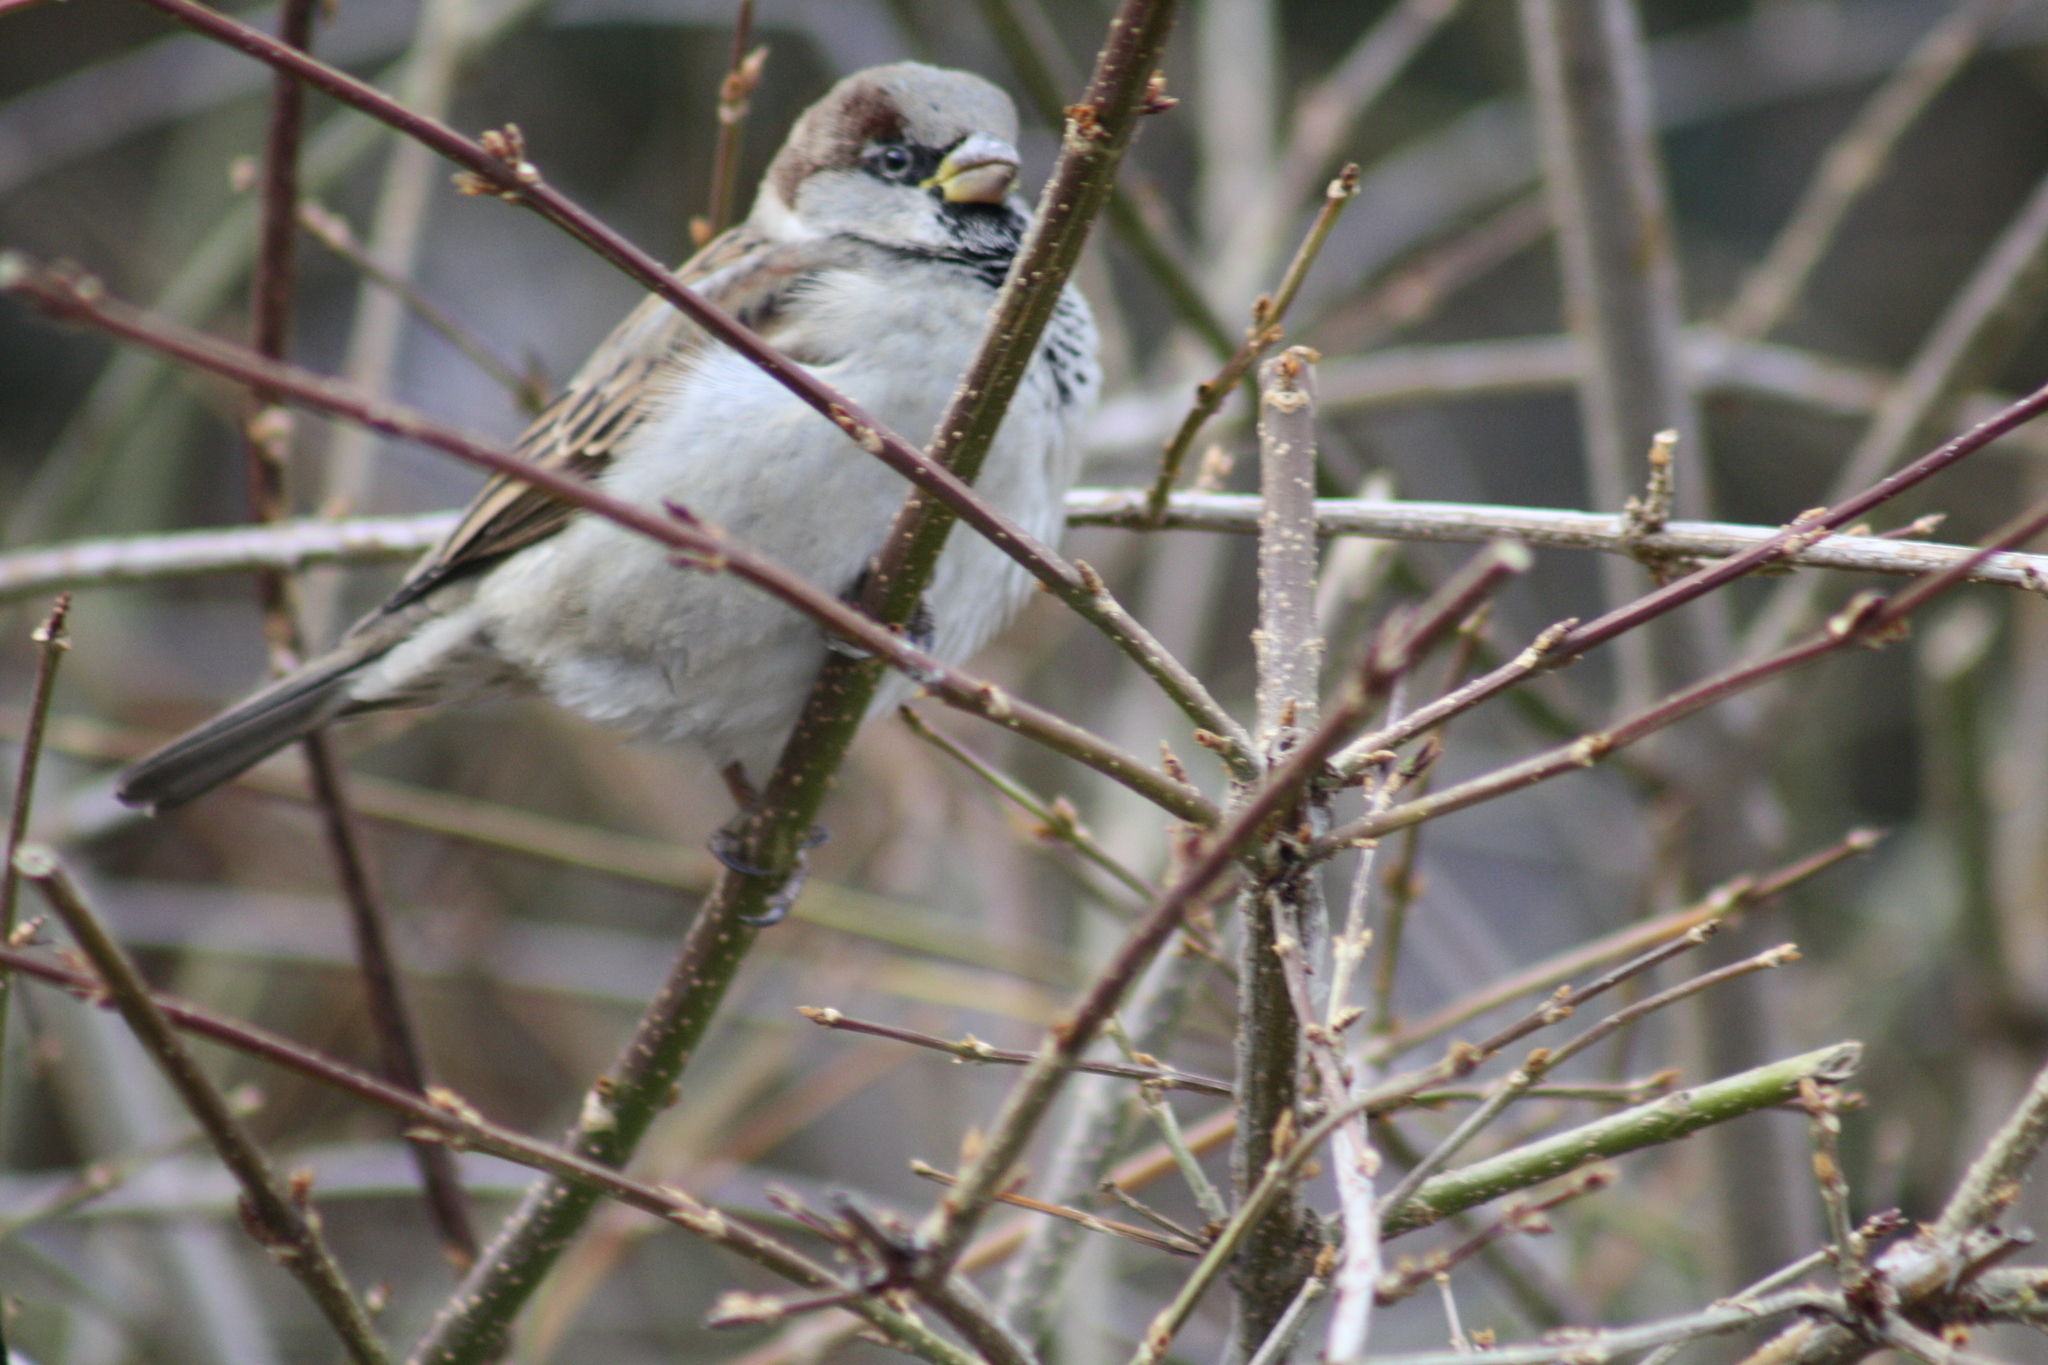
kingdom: Animalia
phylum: Chordata
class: Aves
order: Passeriformes
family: Passeridae
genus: Passer
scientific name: Passer domesticus
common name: House sparrow
